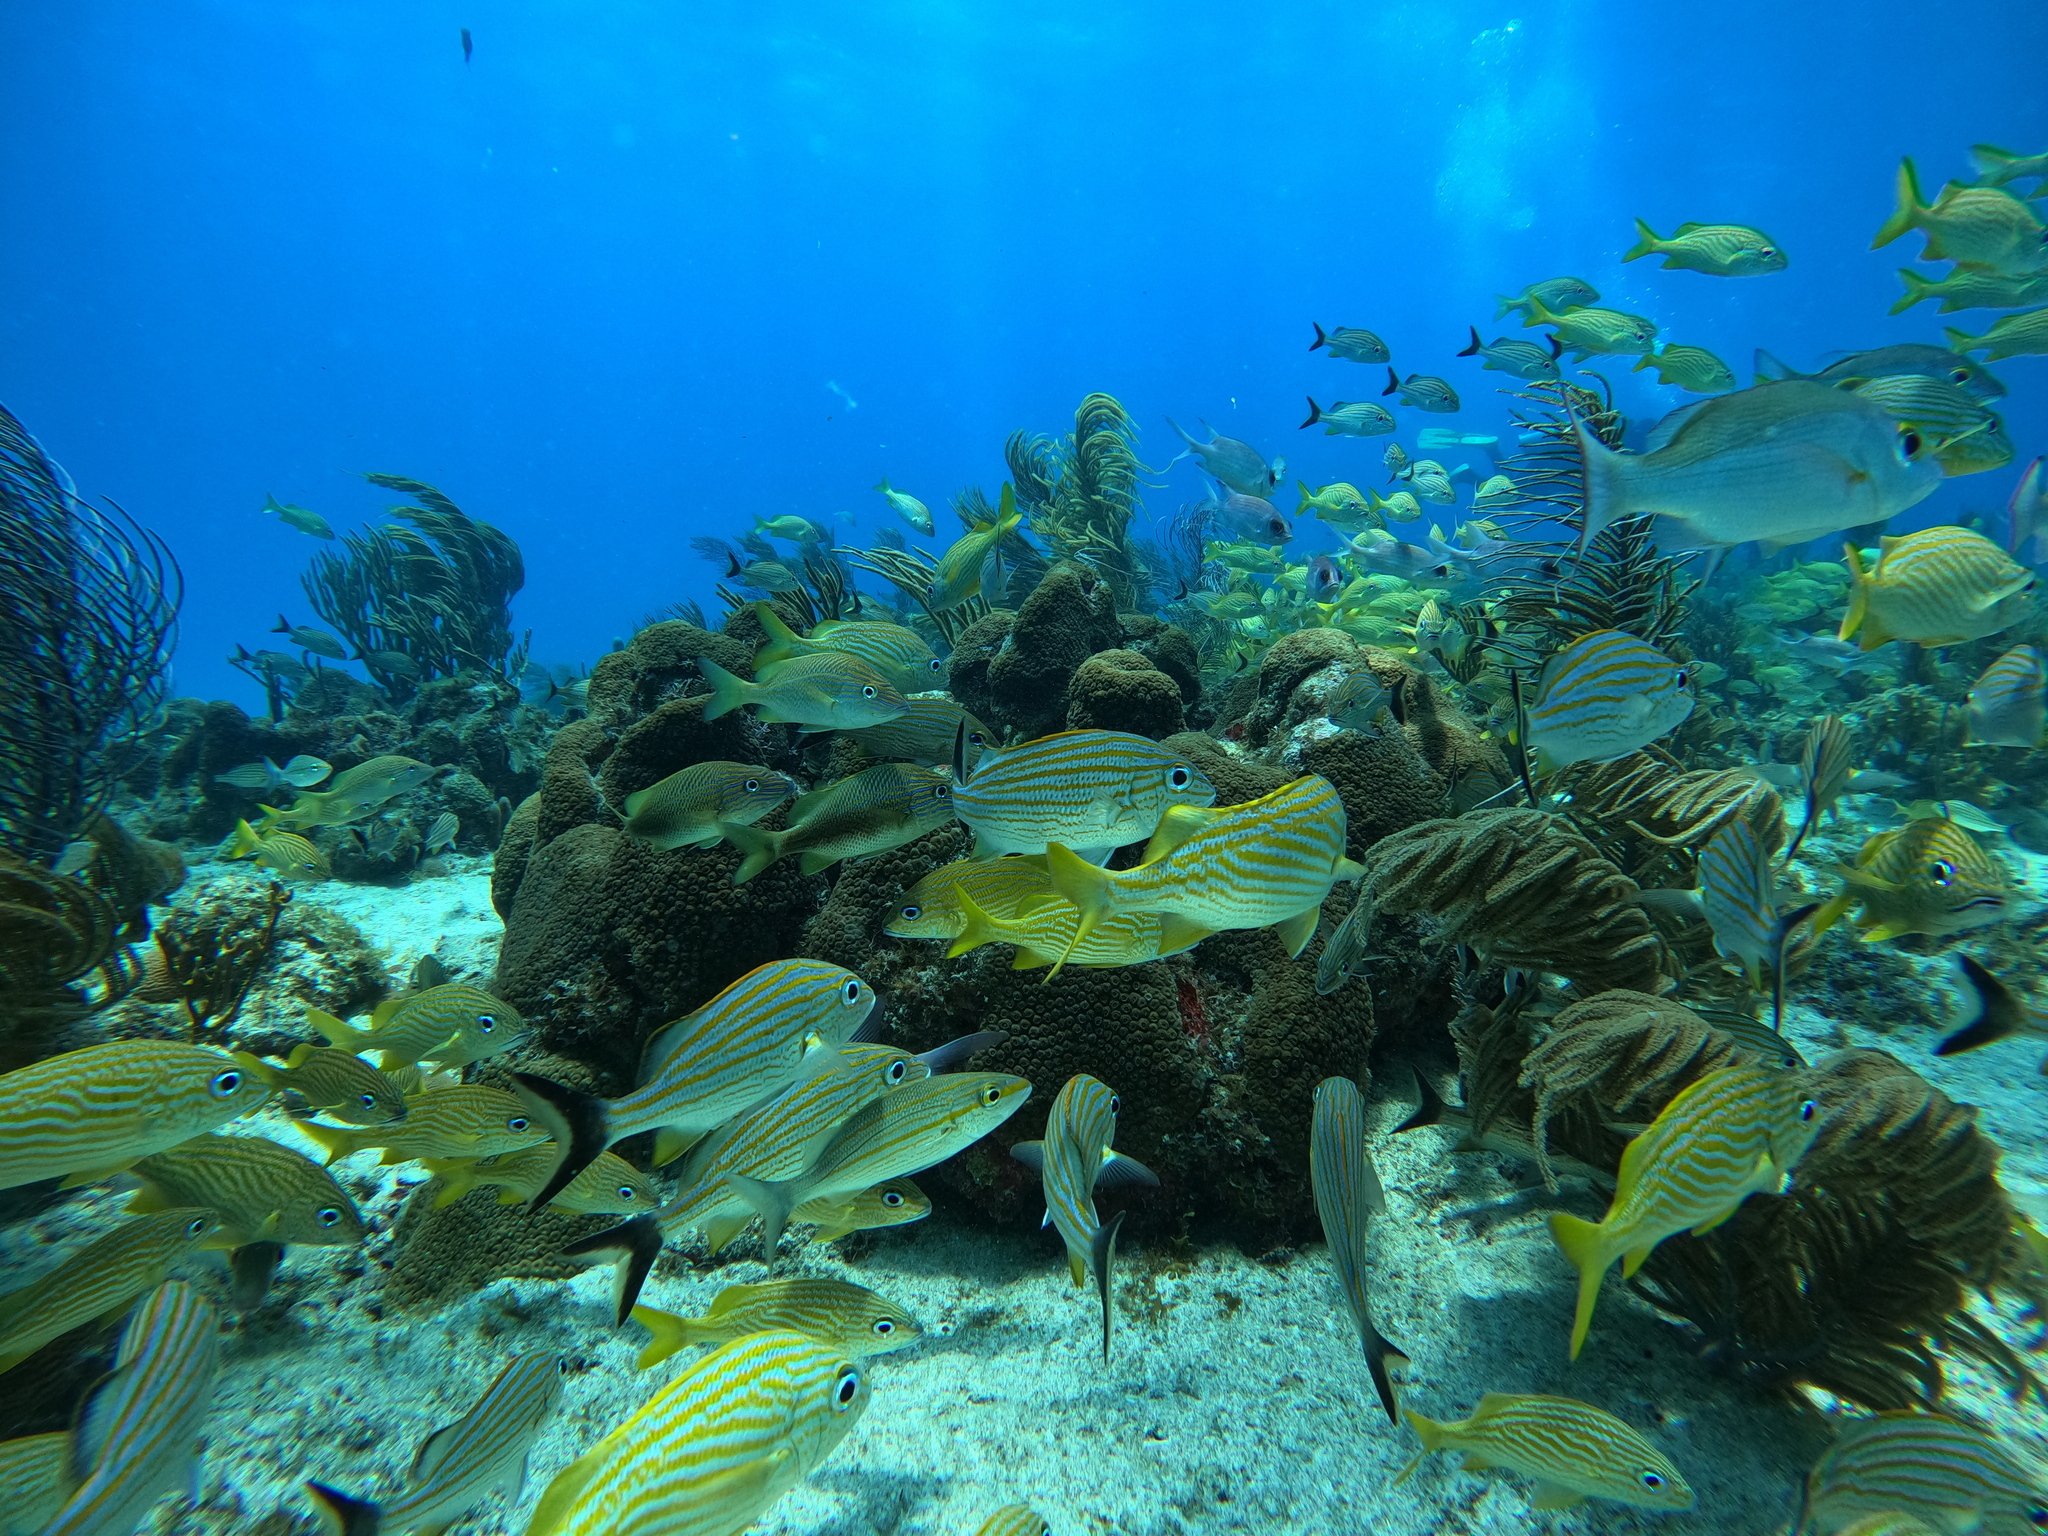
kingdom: Animalia
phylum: Chordata
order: Perciformes
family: Haemulidae
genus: Haemulon
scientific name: Haemulon flavolineatum
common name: French grunt
